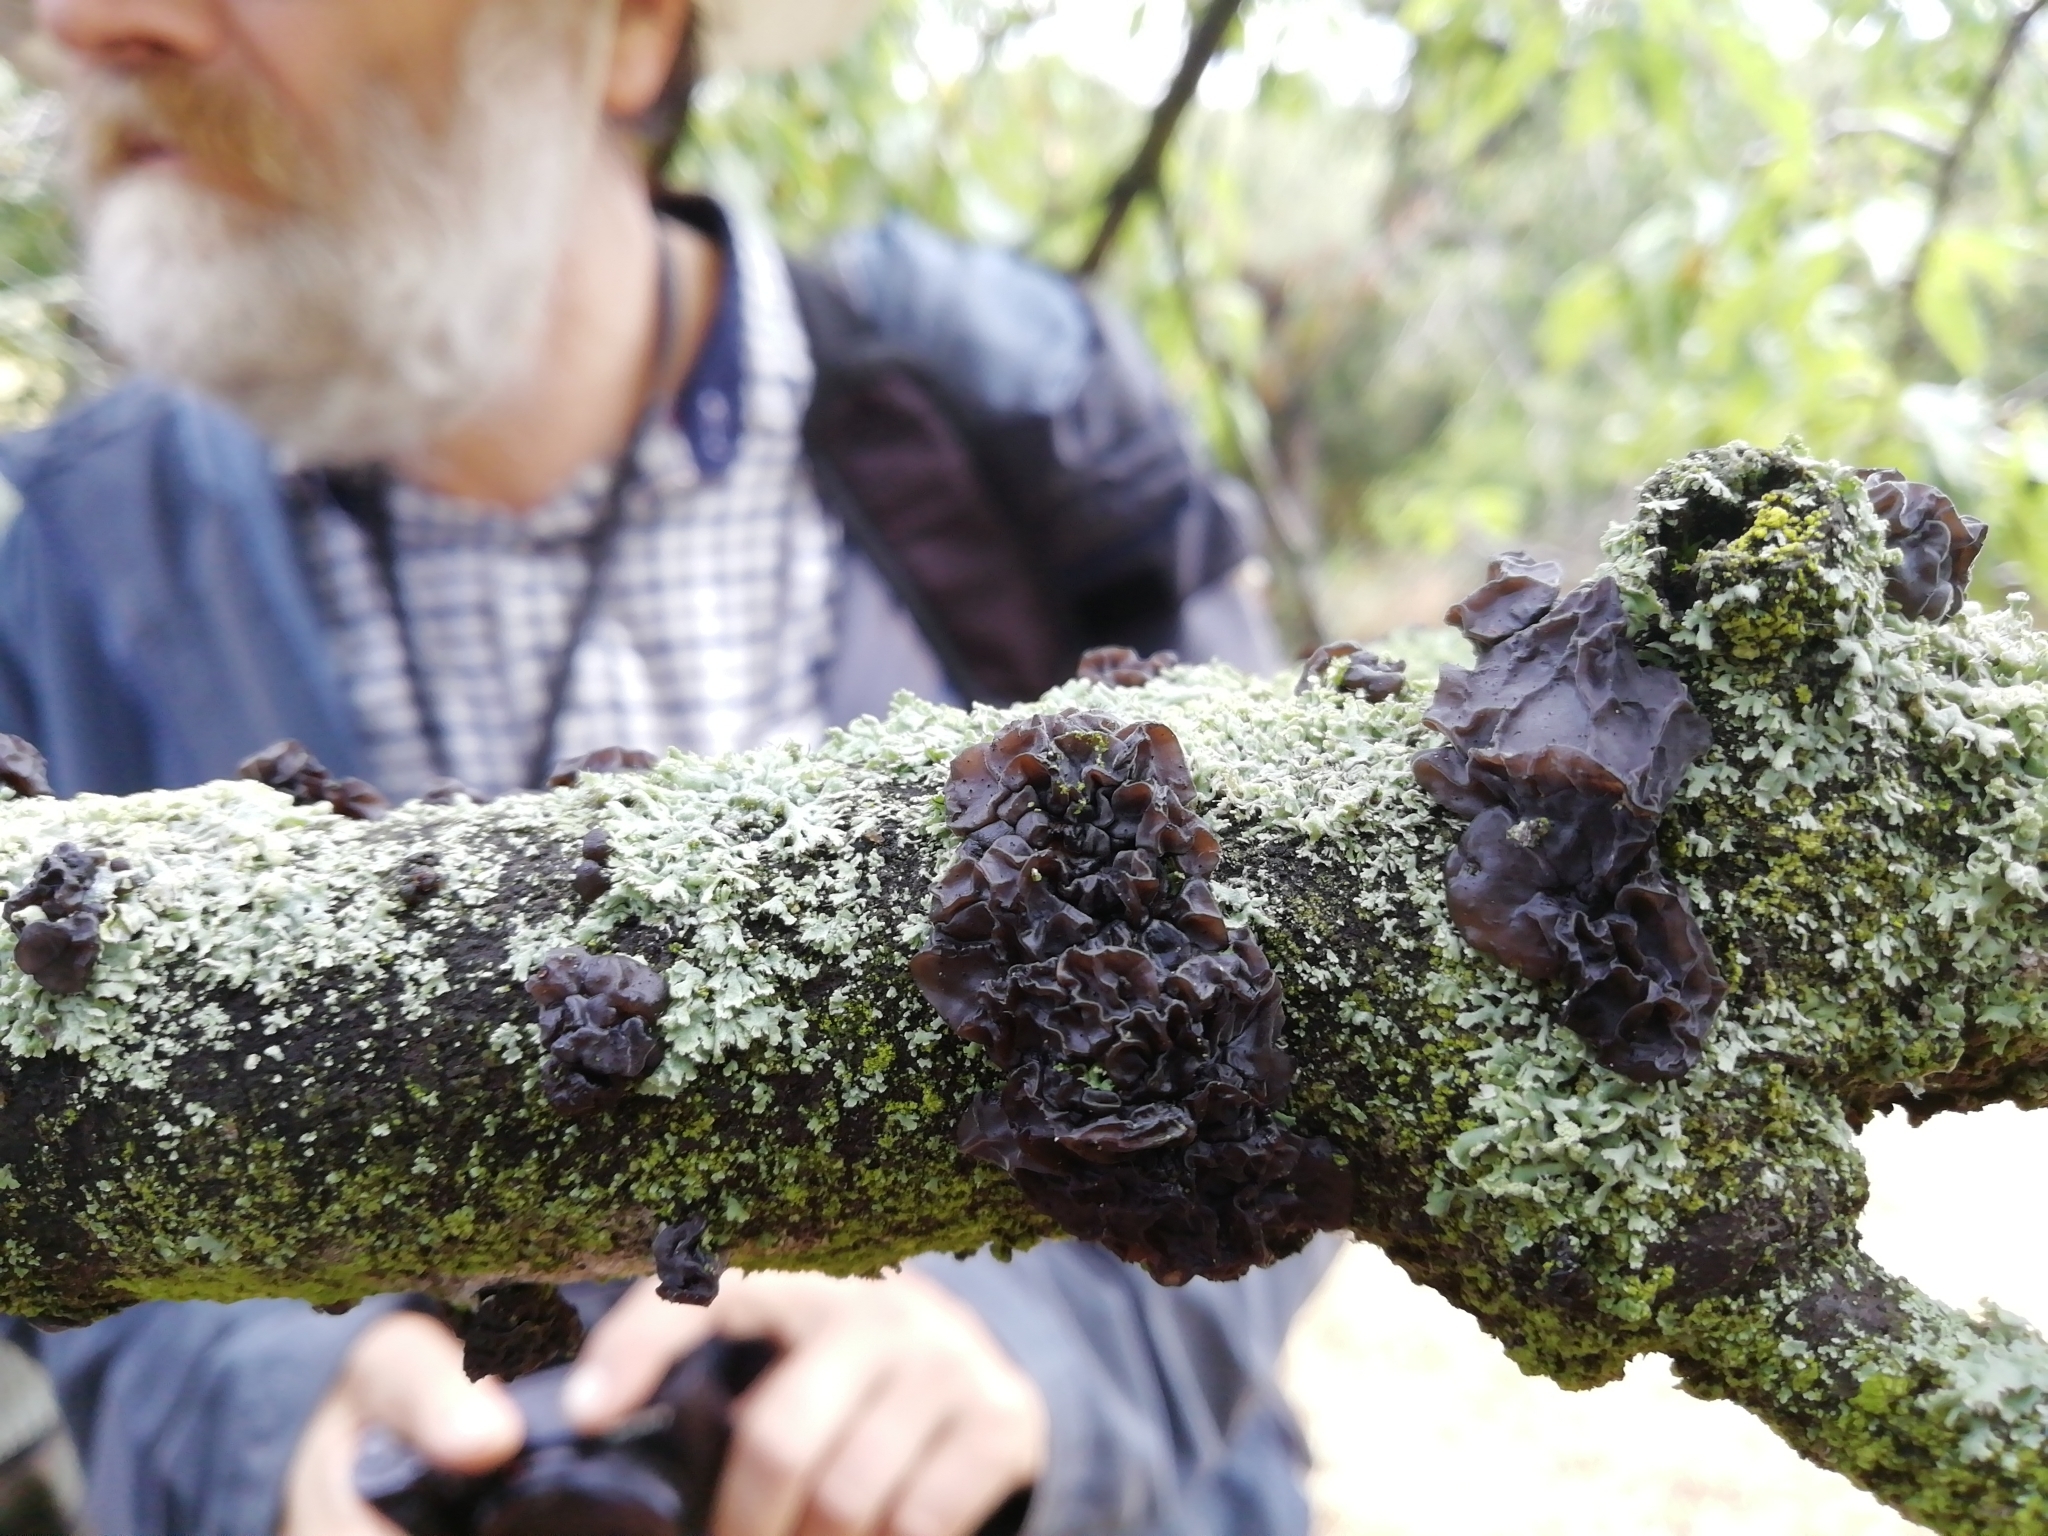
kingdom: Fungi
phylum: Basidiomycota
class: Agaricomycetes
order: Auriculariales
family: Auriculariaceae
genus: Exidia
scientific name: Exidia glandulosa
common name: Witches' butter
